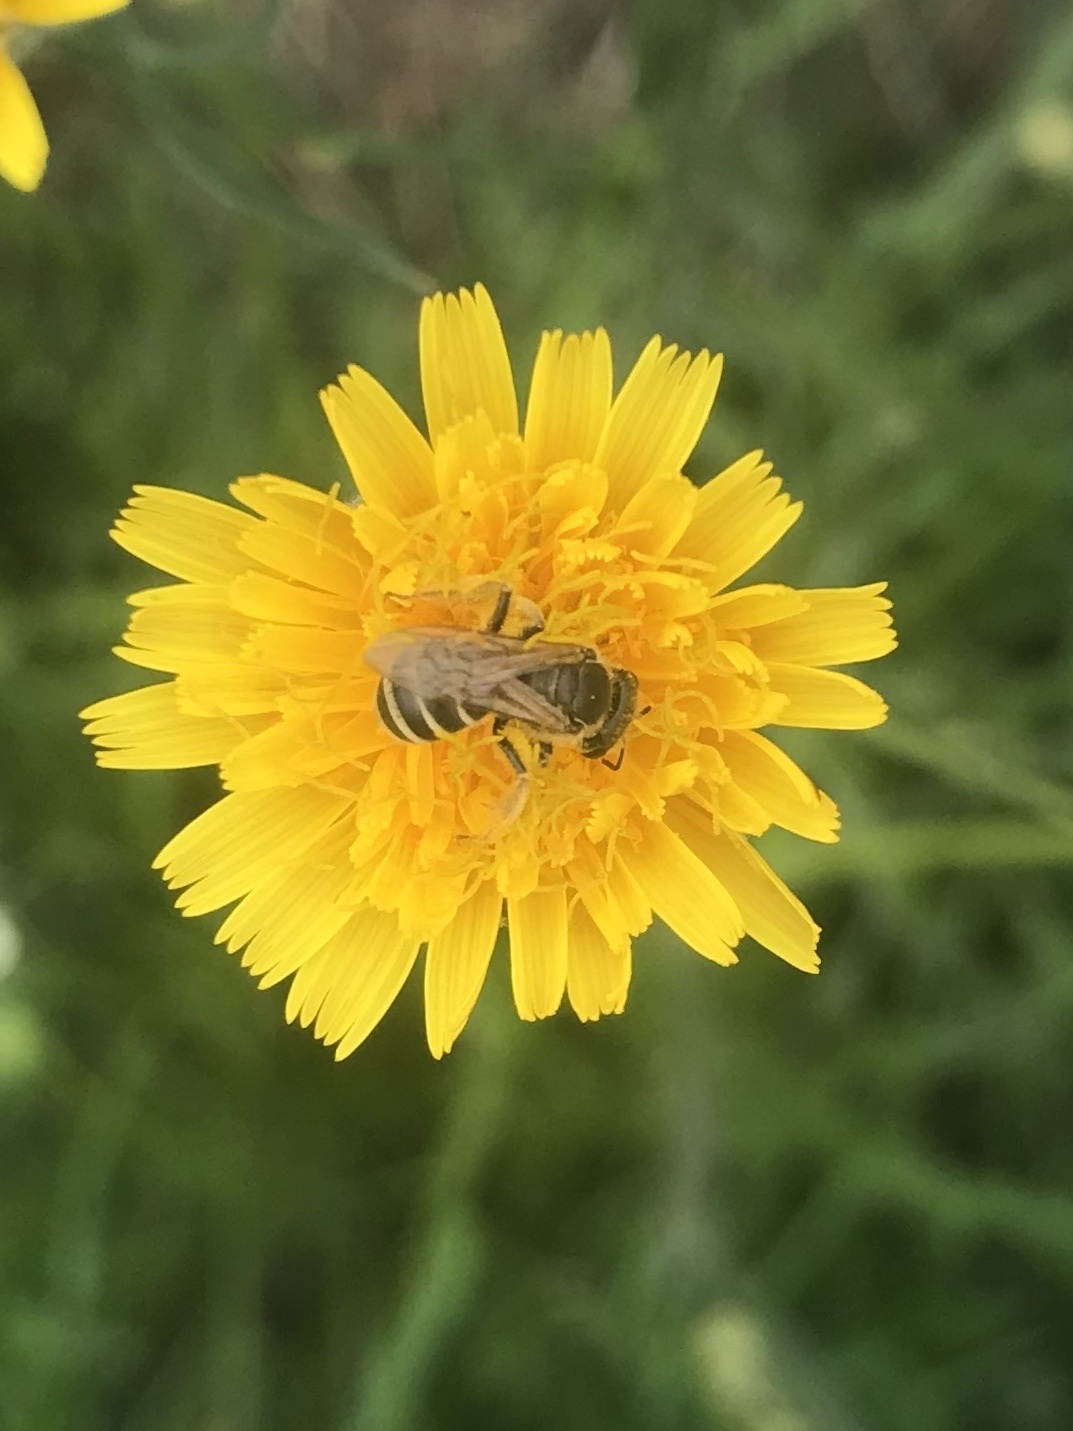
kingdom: Animalia
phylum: Arthropoda
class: Insecta
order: Hymenoptera
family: Halictidae
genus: Halictus
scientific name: Halictus ligatus
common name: Ligated furrow bee
